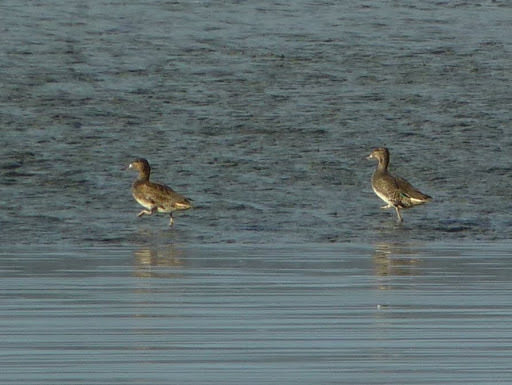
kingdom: Animalia
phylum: Chordata
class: Aves
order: Anseriformes
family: Anatidae
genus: Anas
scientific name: Anas crecca
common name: Eurasian teal
